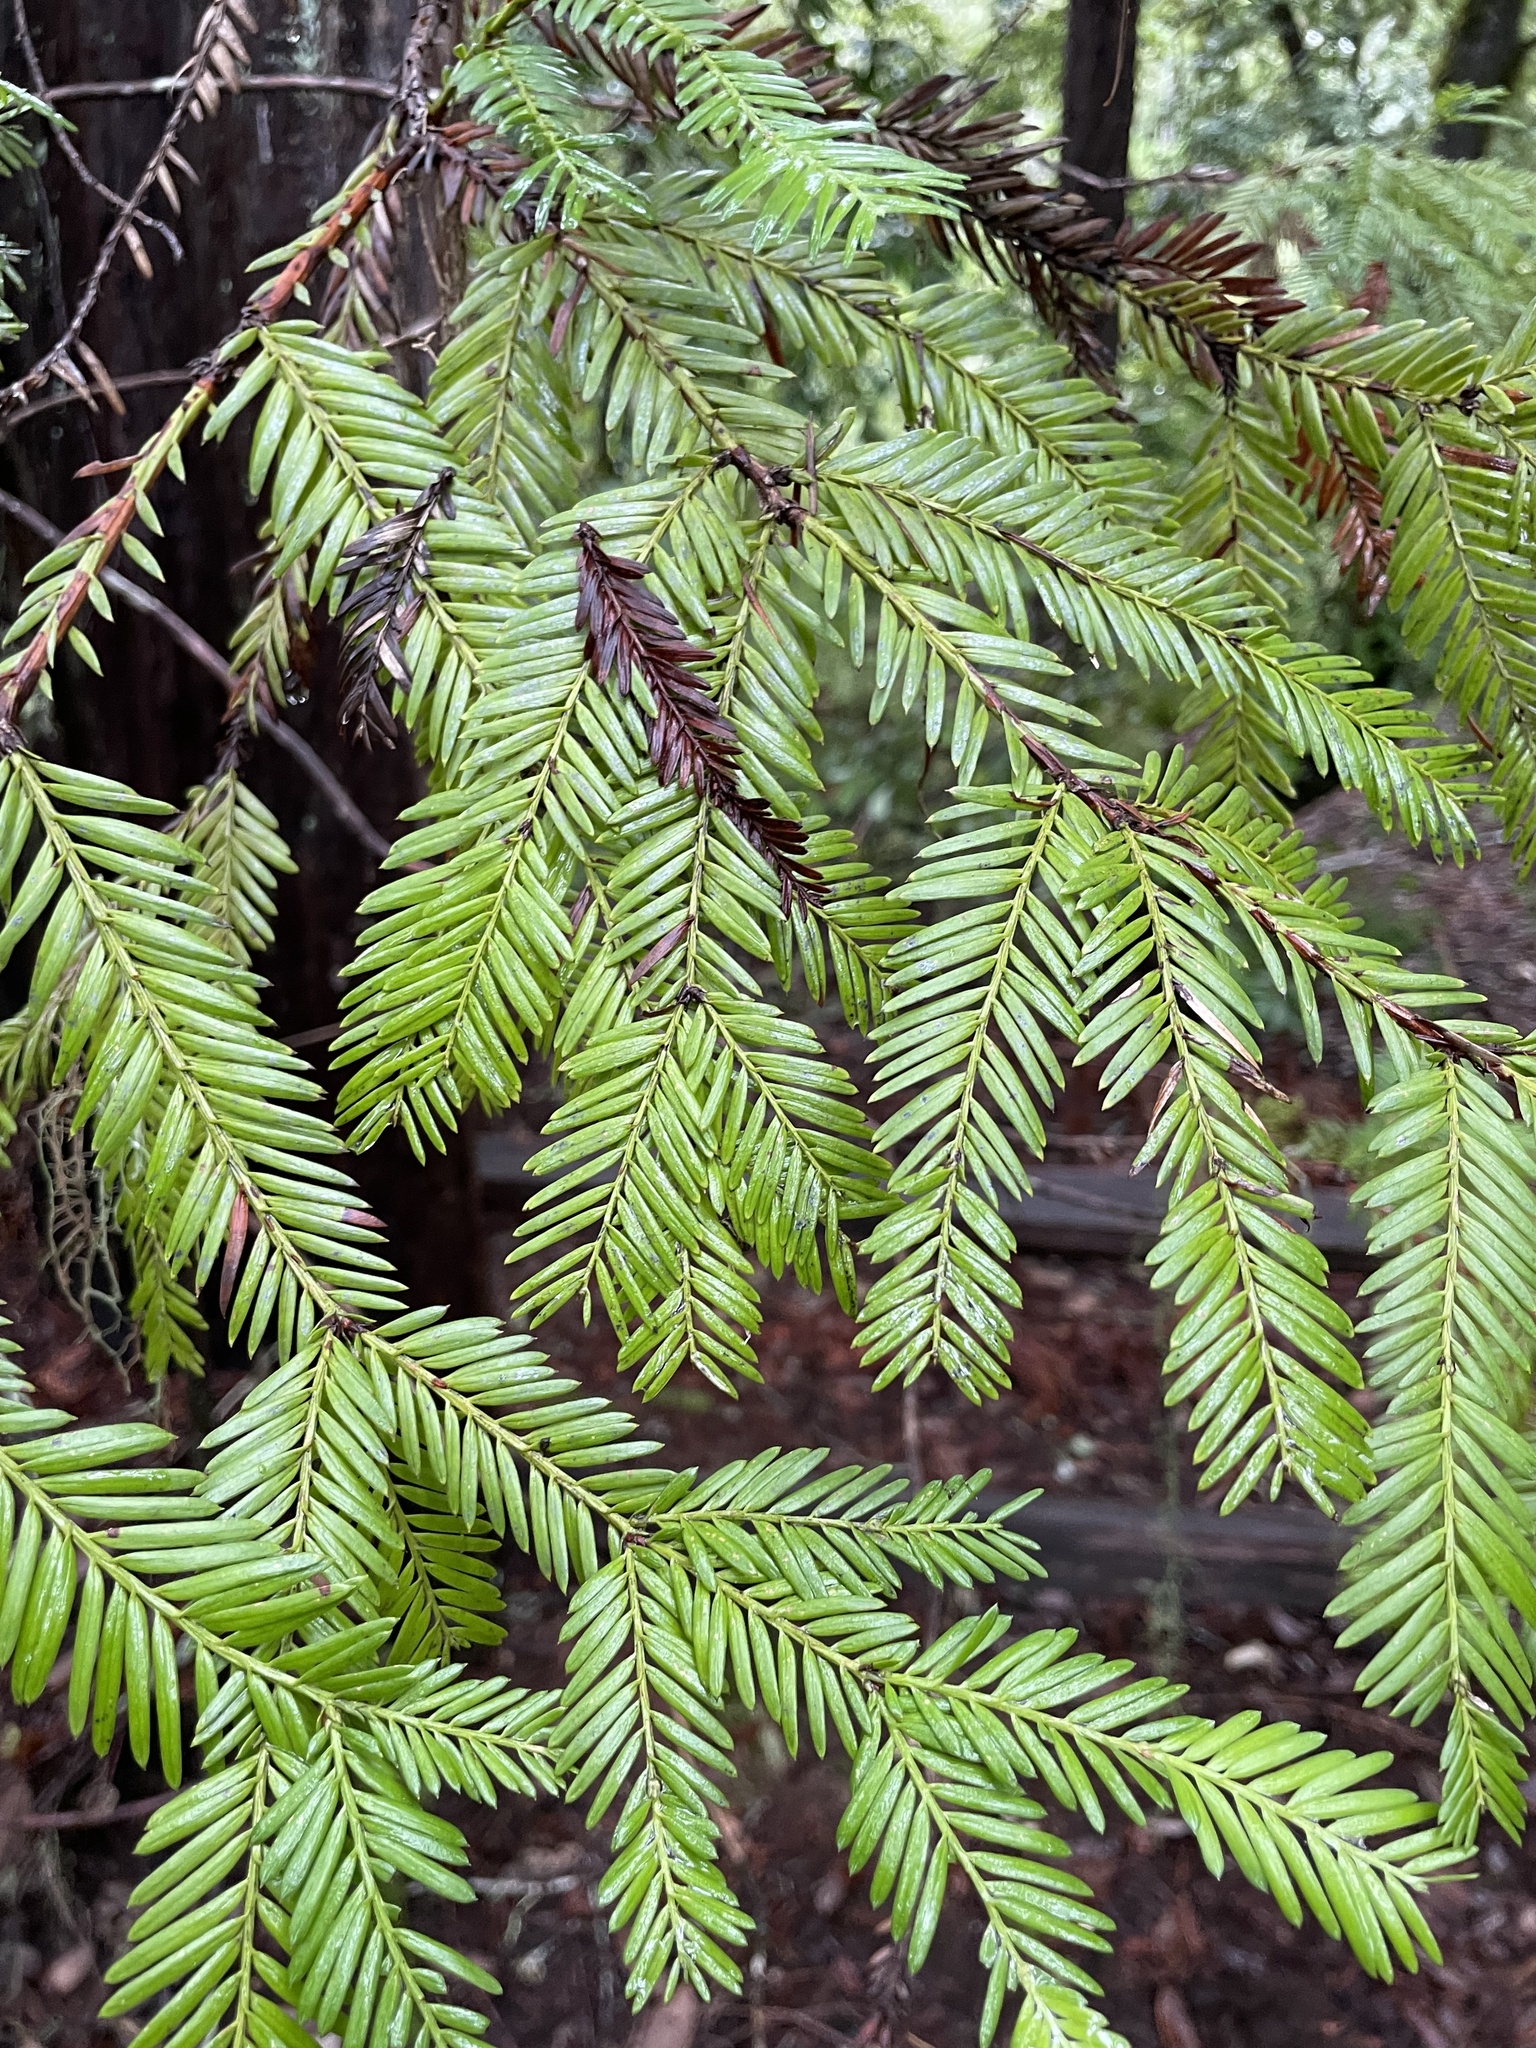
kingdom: Plantae
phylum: Tracheophyta
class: Pinopsida
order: Pinales
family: Cupressaceae
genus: Sequoia
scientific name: Sequoia sempervirens
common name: Coast redwood
